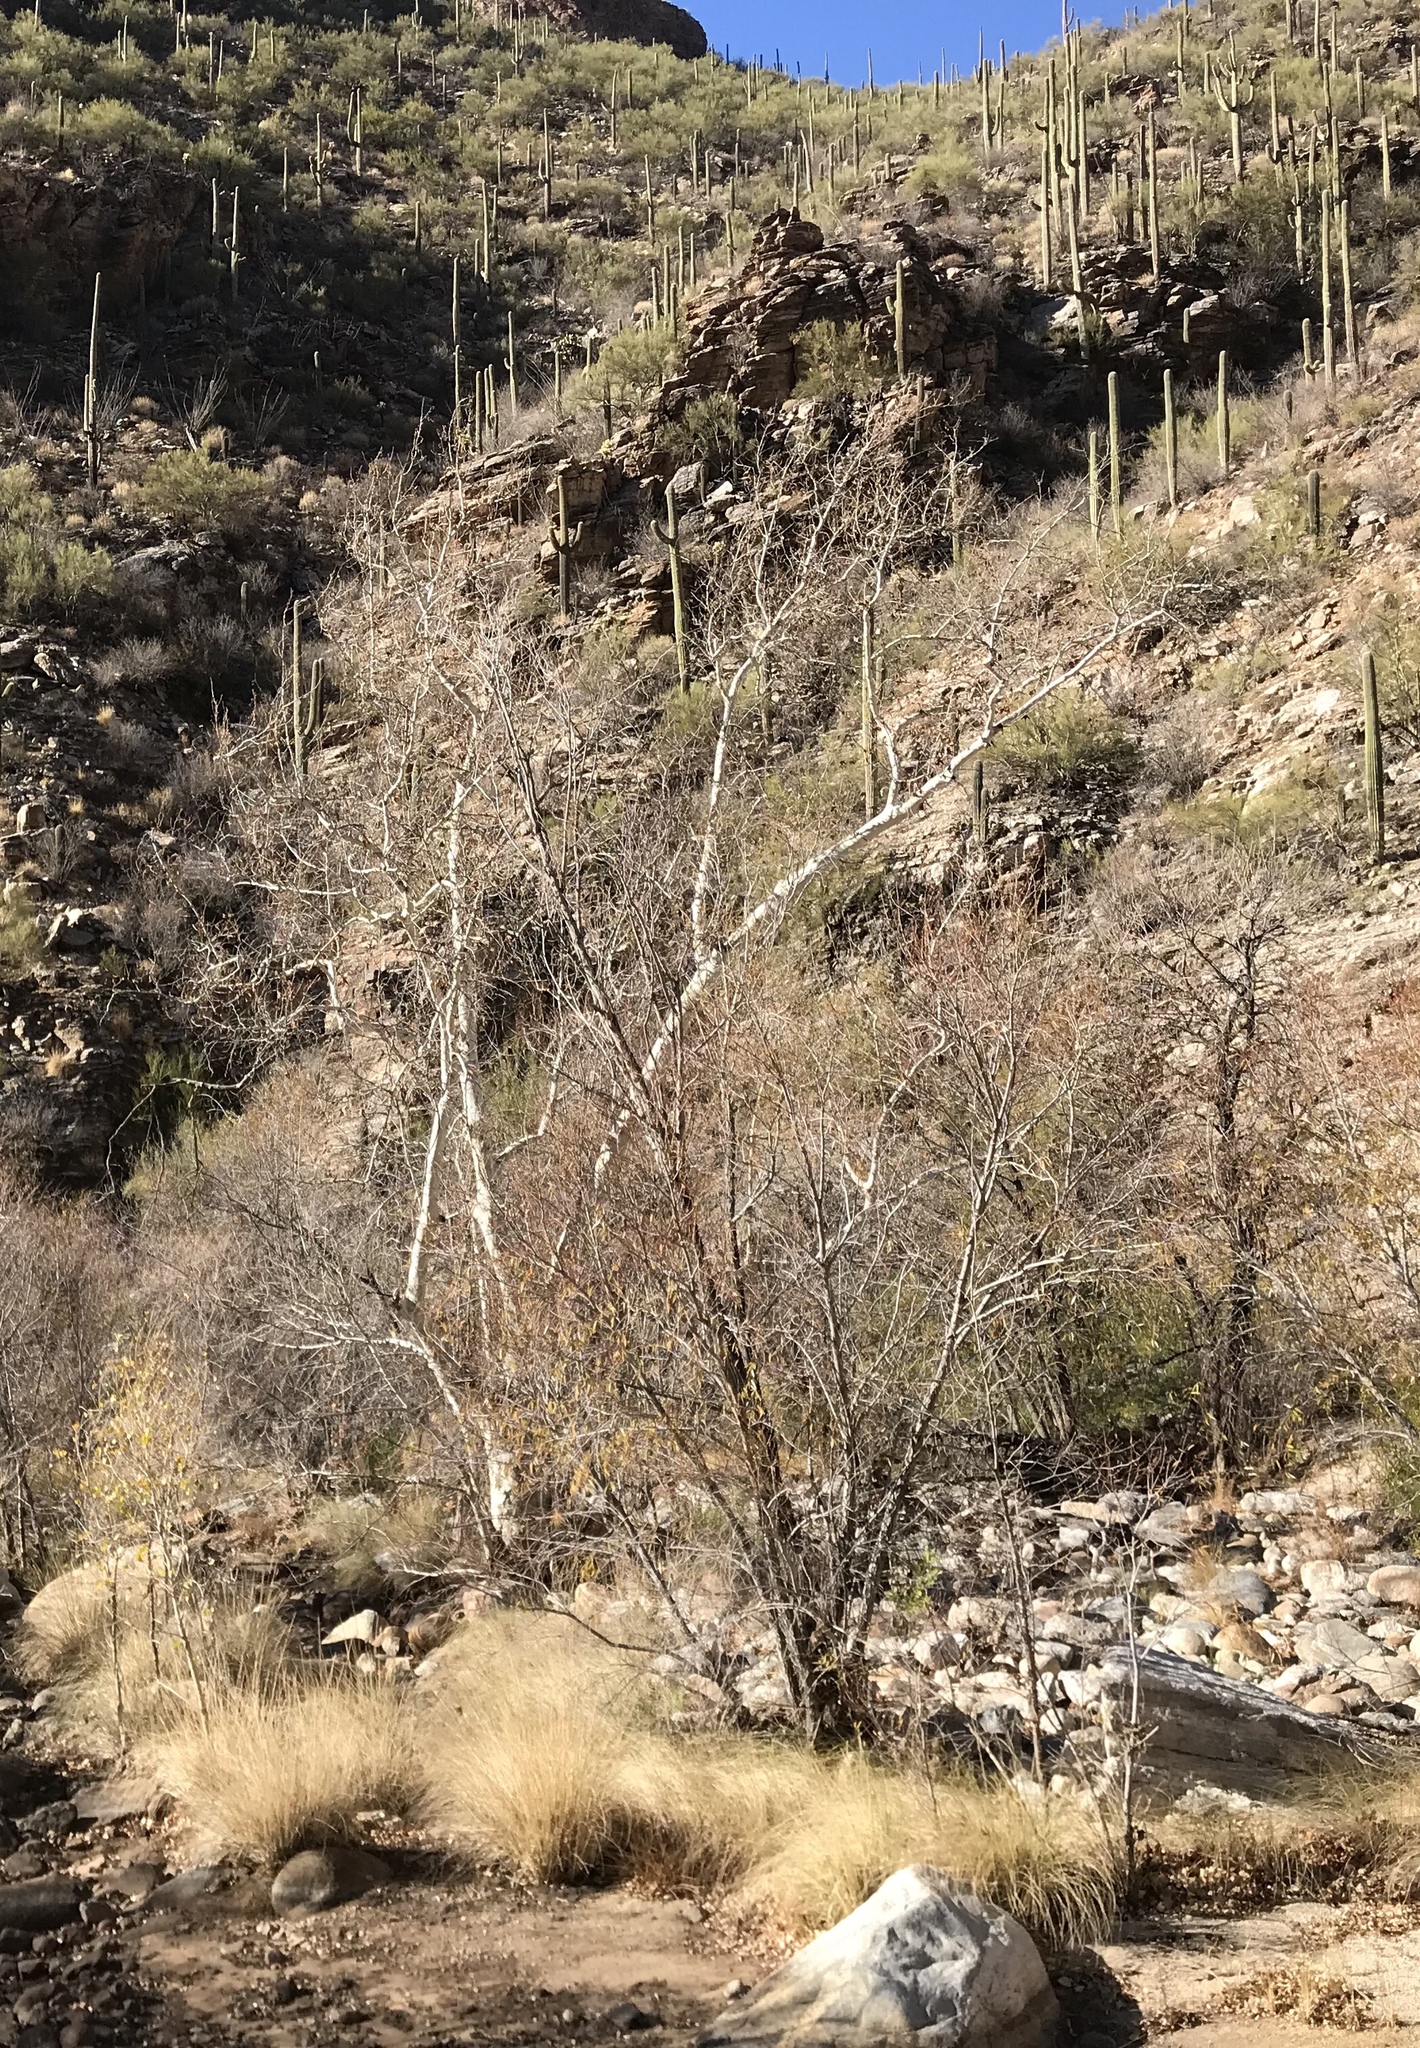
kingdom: Plantae
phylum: Tracheophyta
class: Magnoliopsida
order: Proteales
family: Platanaceae
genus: Platanus
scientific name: Platanus wrightii
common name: Arizona sycamore
